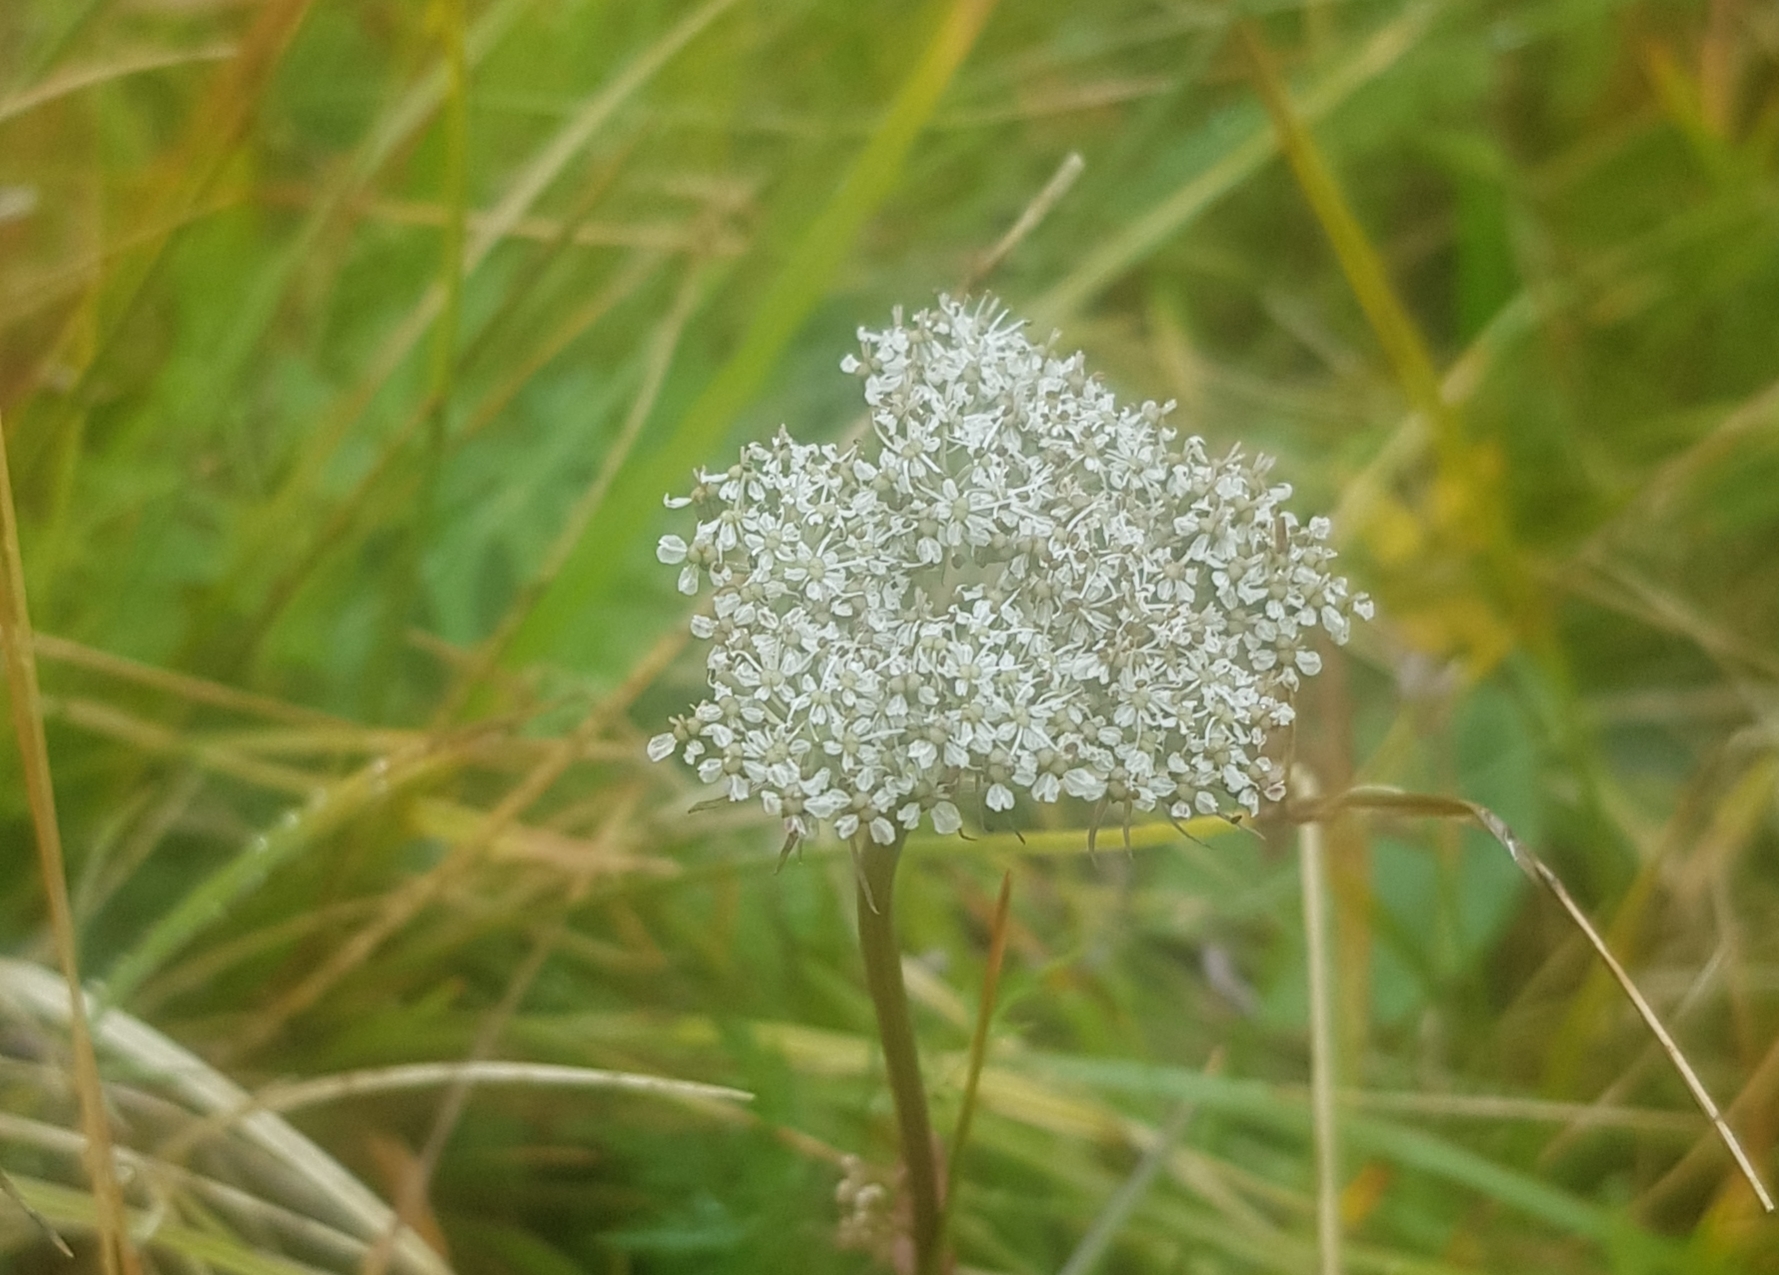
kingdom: Plantae
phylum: Tracheophyta
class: Magnoliopsida
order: Apiales
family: Apiaceae
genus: Pachypleurum
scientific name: Pachypleurum mutellinoides
